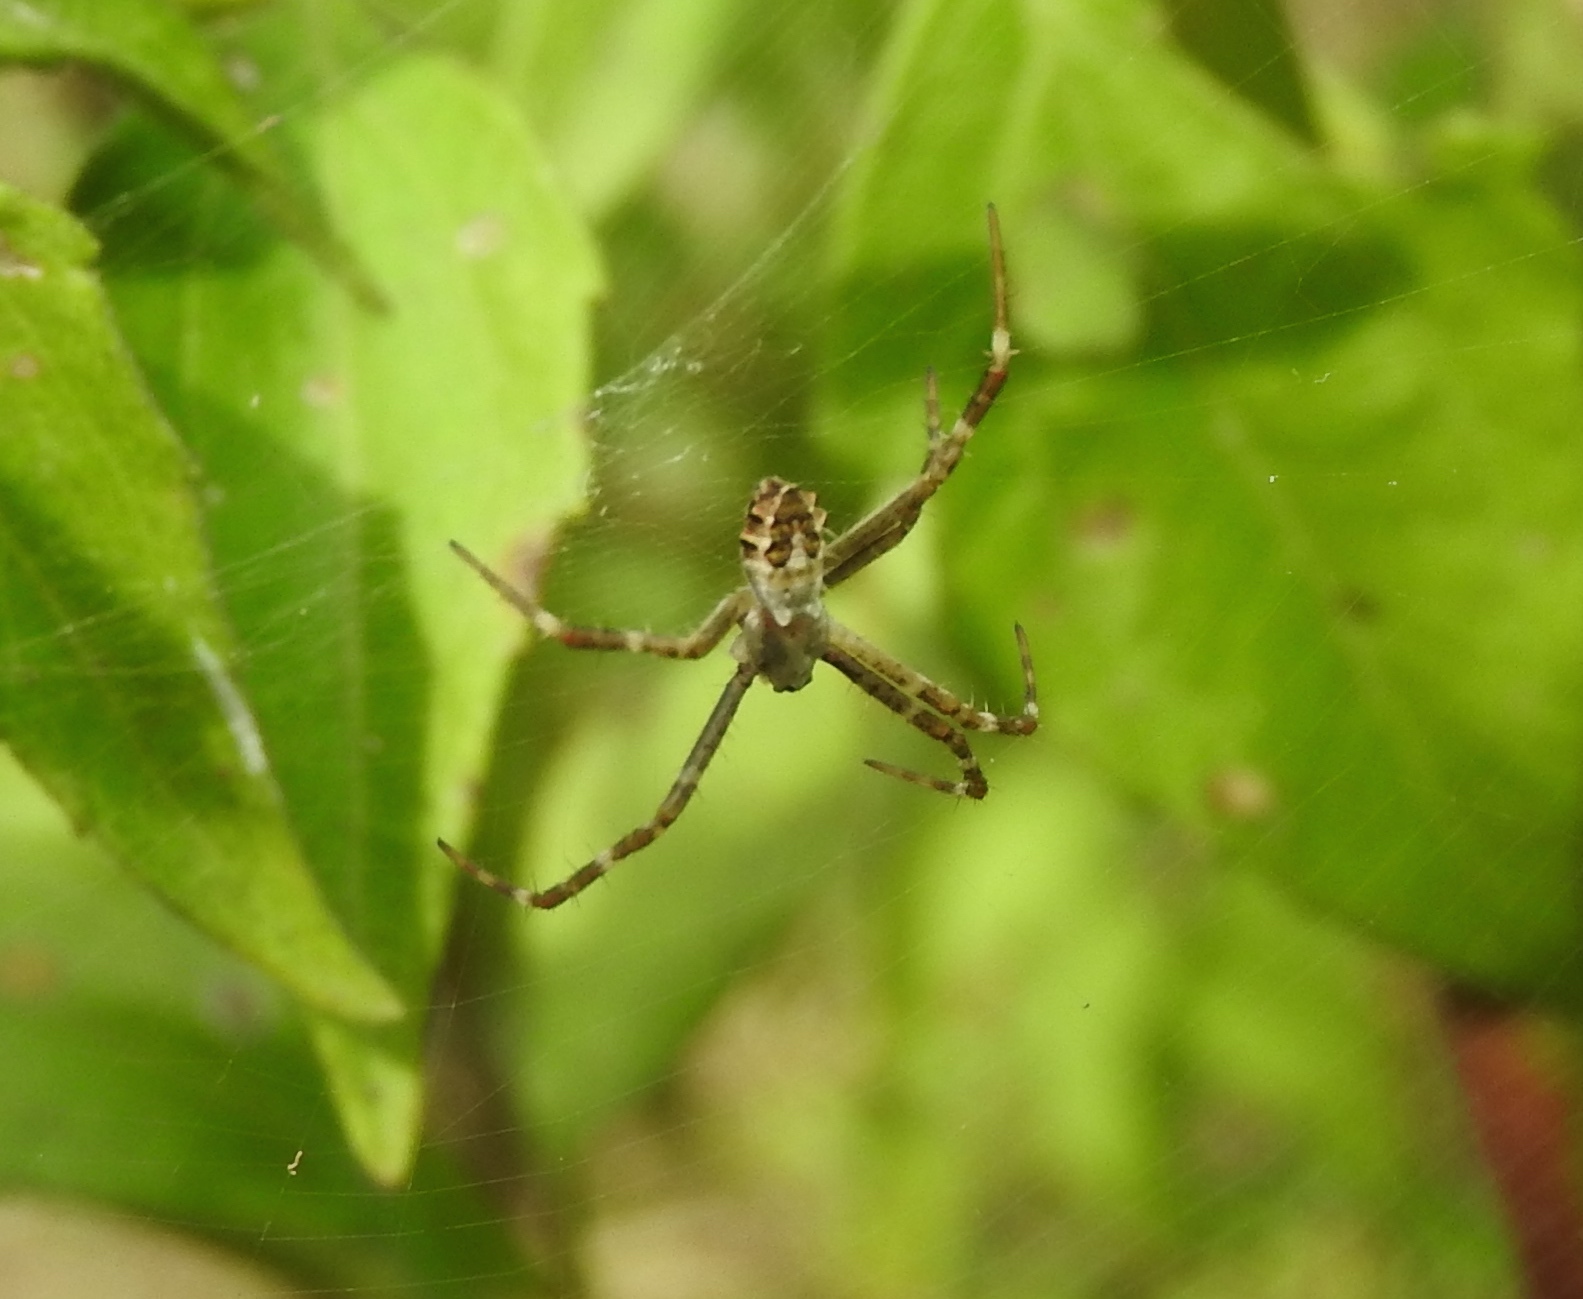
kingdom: Animalia
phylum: Arthropoda
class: Arachnida
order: Araneae
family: Araneidae
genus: Argiope
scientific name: Argiope argentata
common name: Orb weavers
